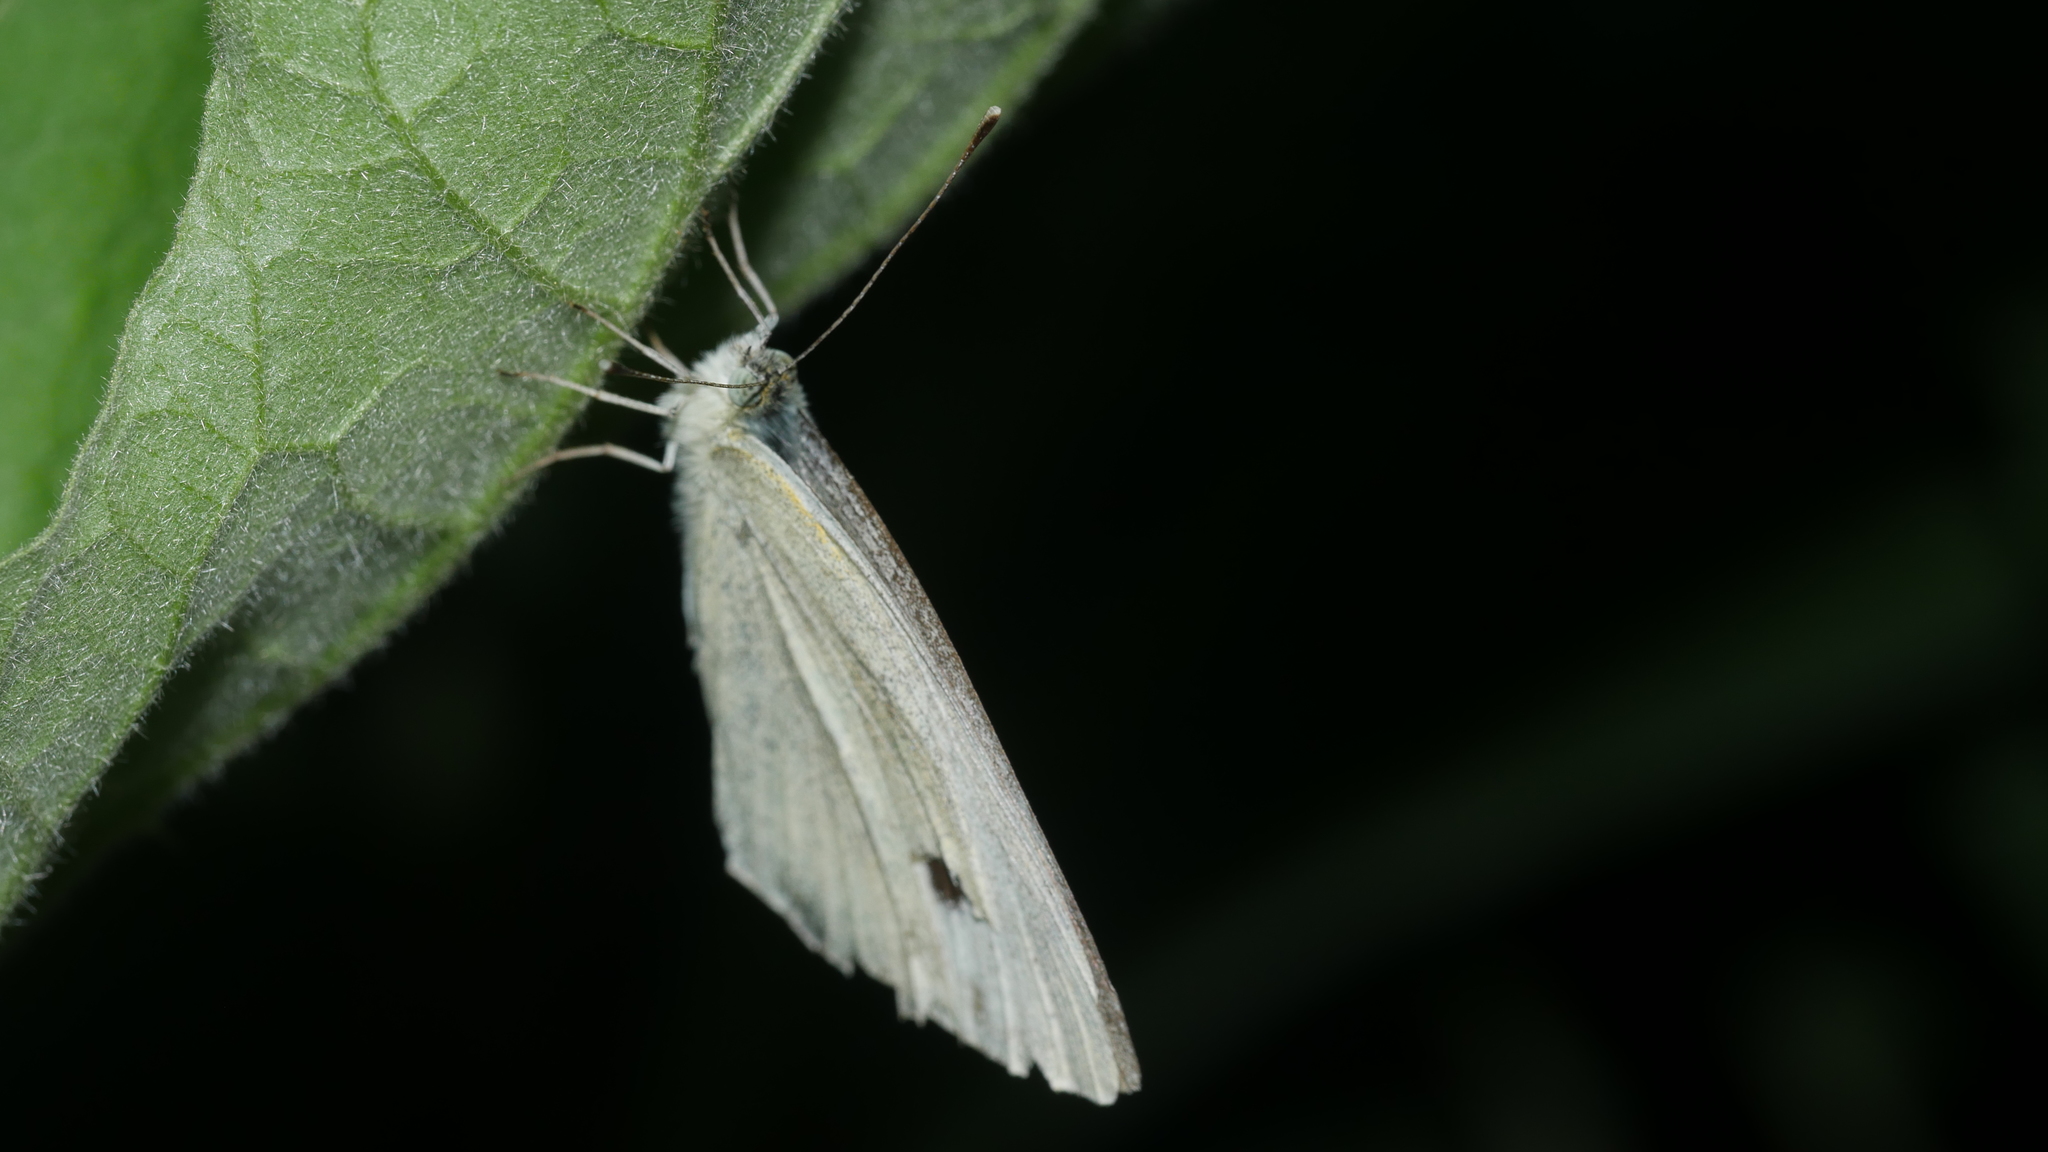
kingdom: Animalia
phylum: Arthropoda
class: Insecta
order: Lepidoptera
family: Pieridae
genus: Pieris
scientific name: Pieris rapae
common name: Small white
